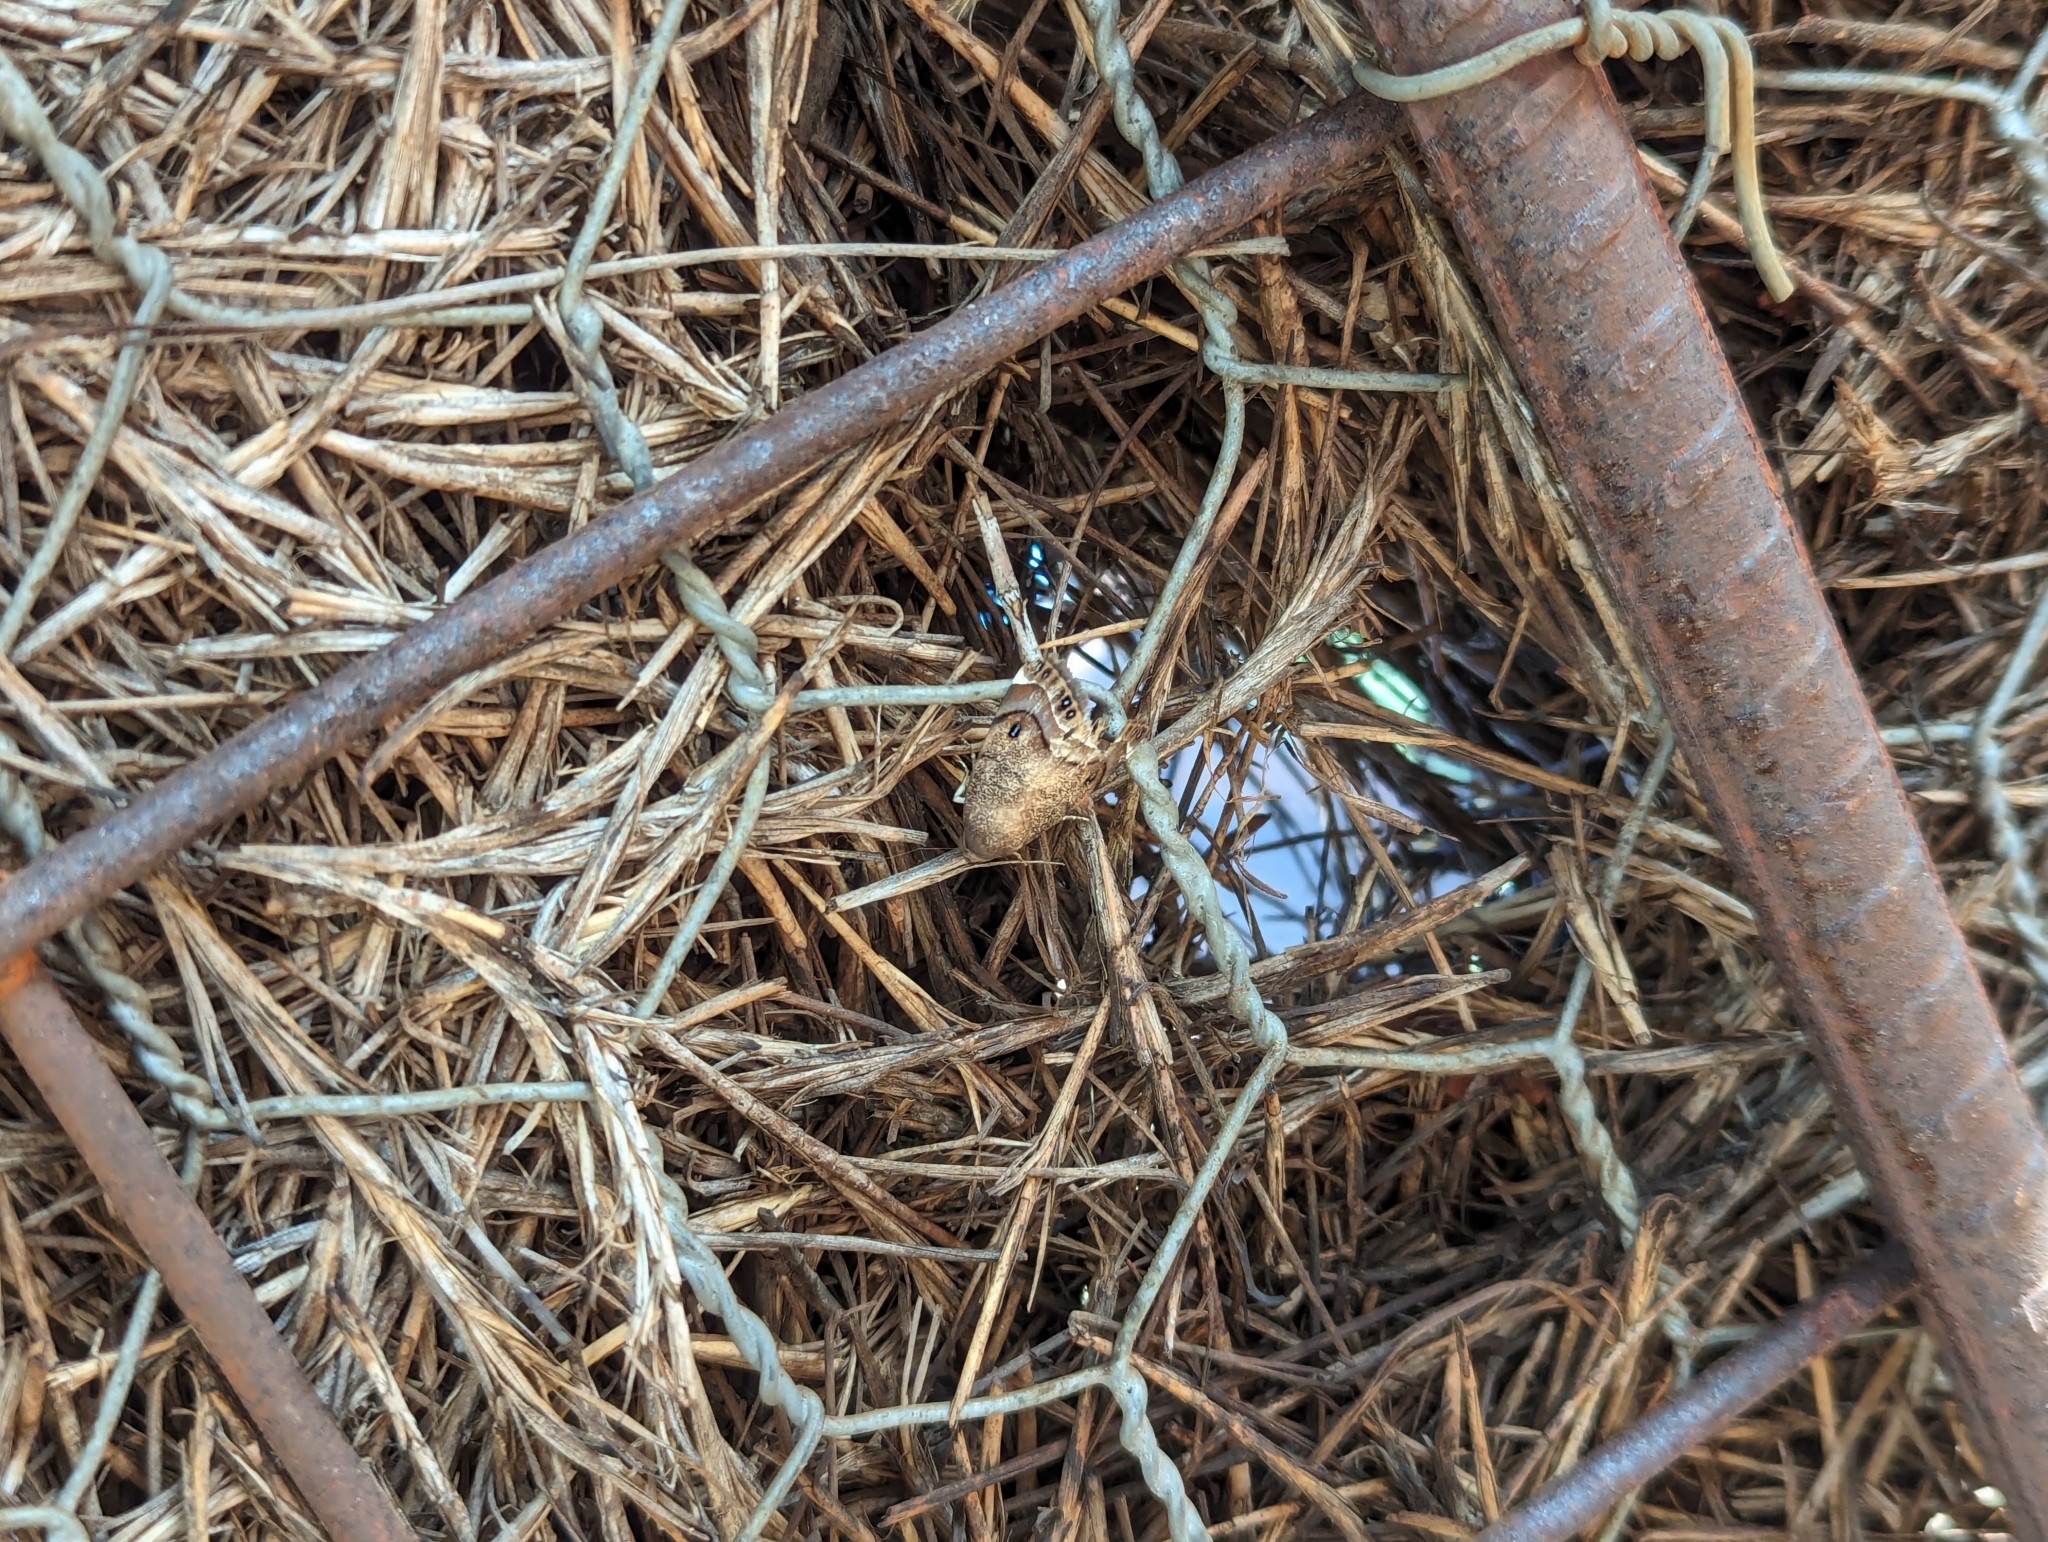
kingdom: Animalia
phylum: Arthropoda
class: Insecta
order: Lepidoptera
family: Nolidae
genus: Armactica
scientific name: Armactica columbina
